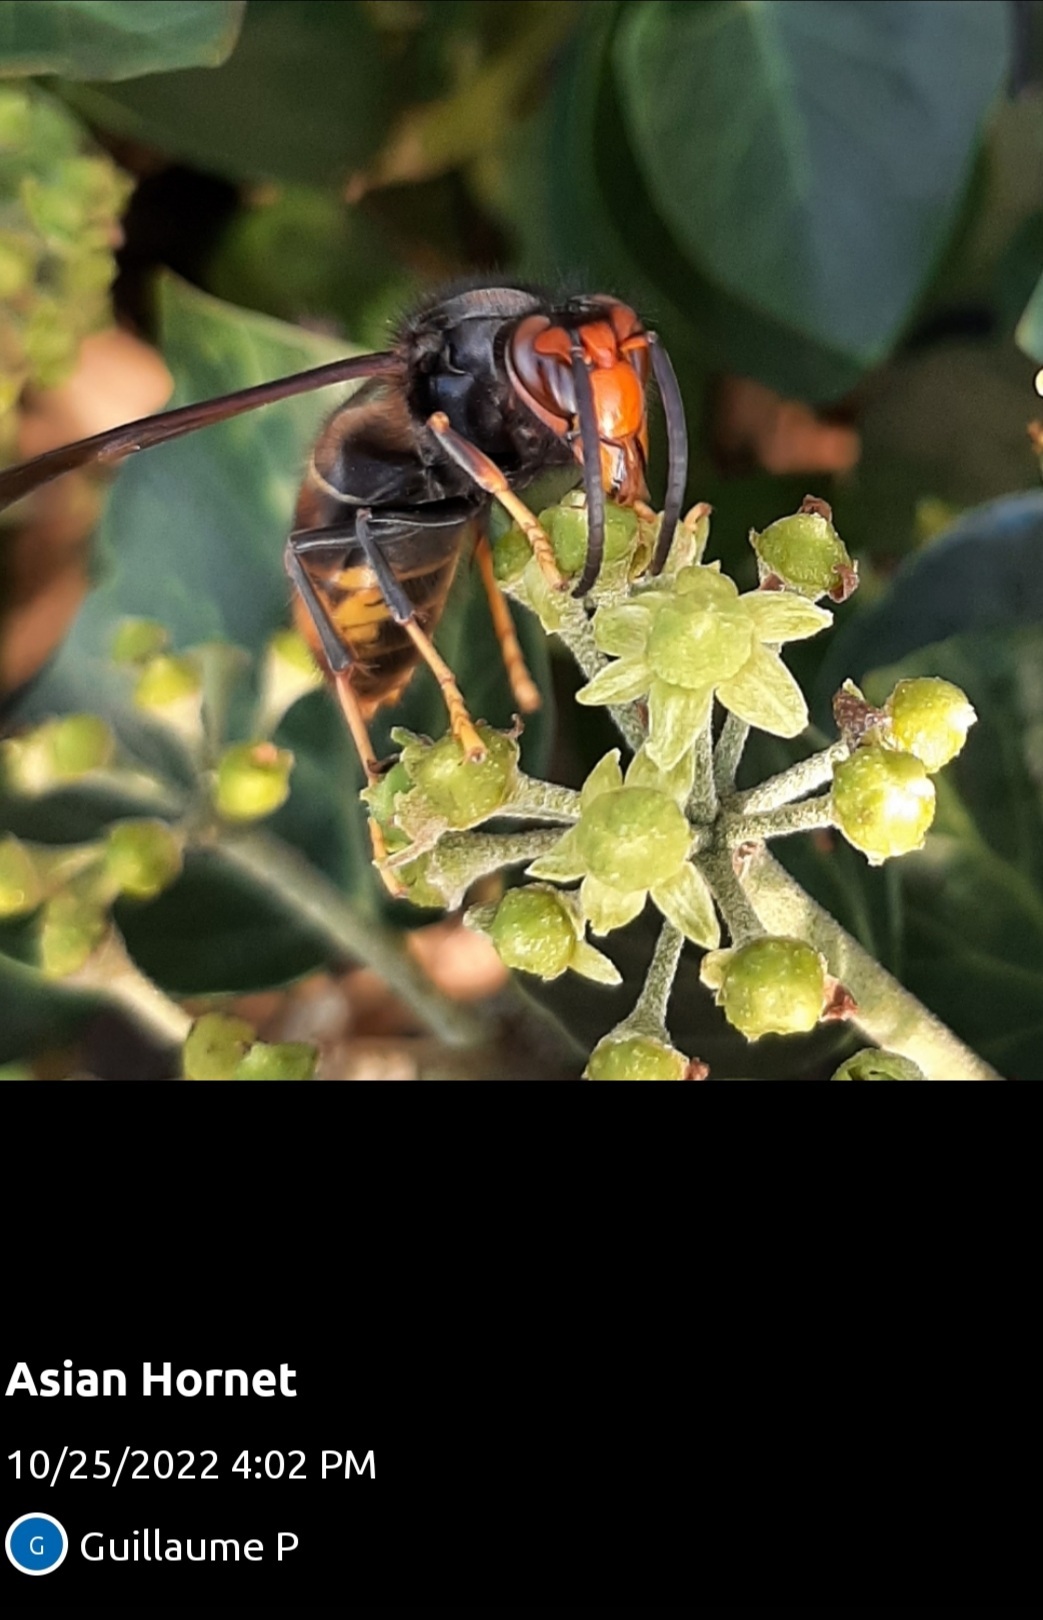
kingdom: Animalia
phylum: Arthropoda
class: Insecta
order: Hymenoptera
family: Vespidae
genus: Vespa
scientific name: Vespa velutina
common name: Asian hornet
